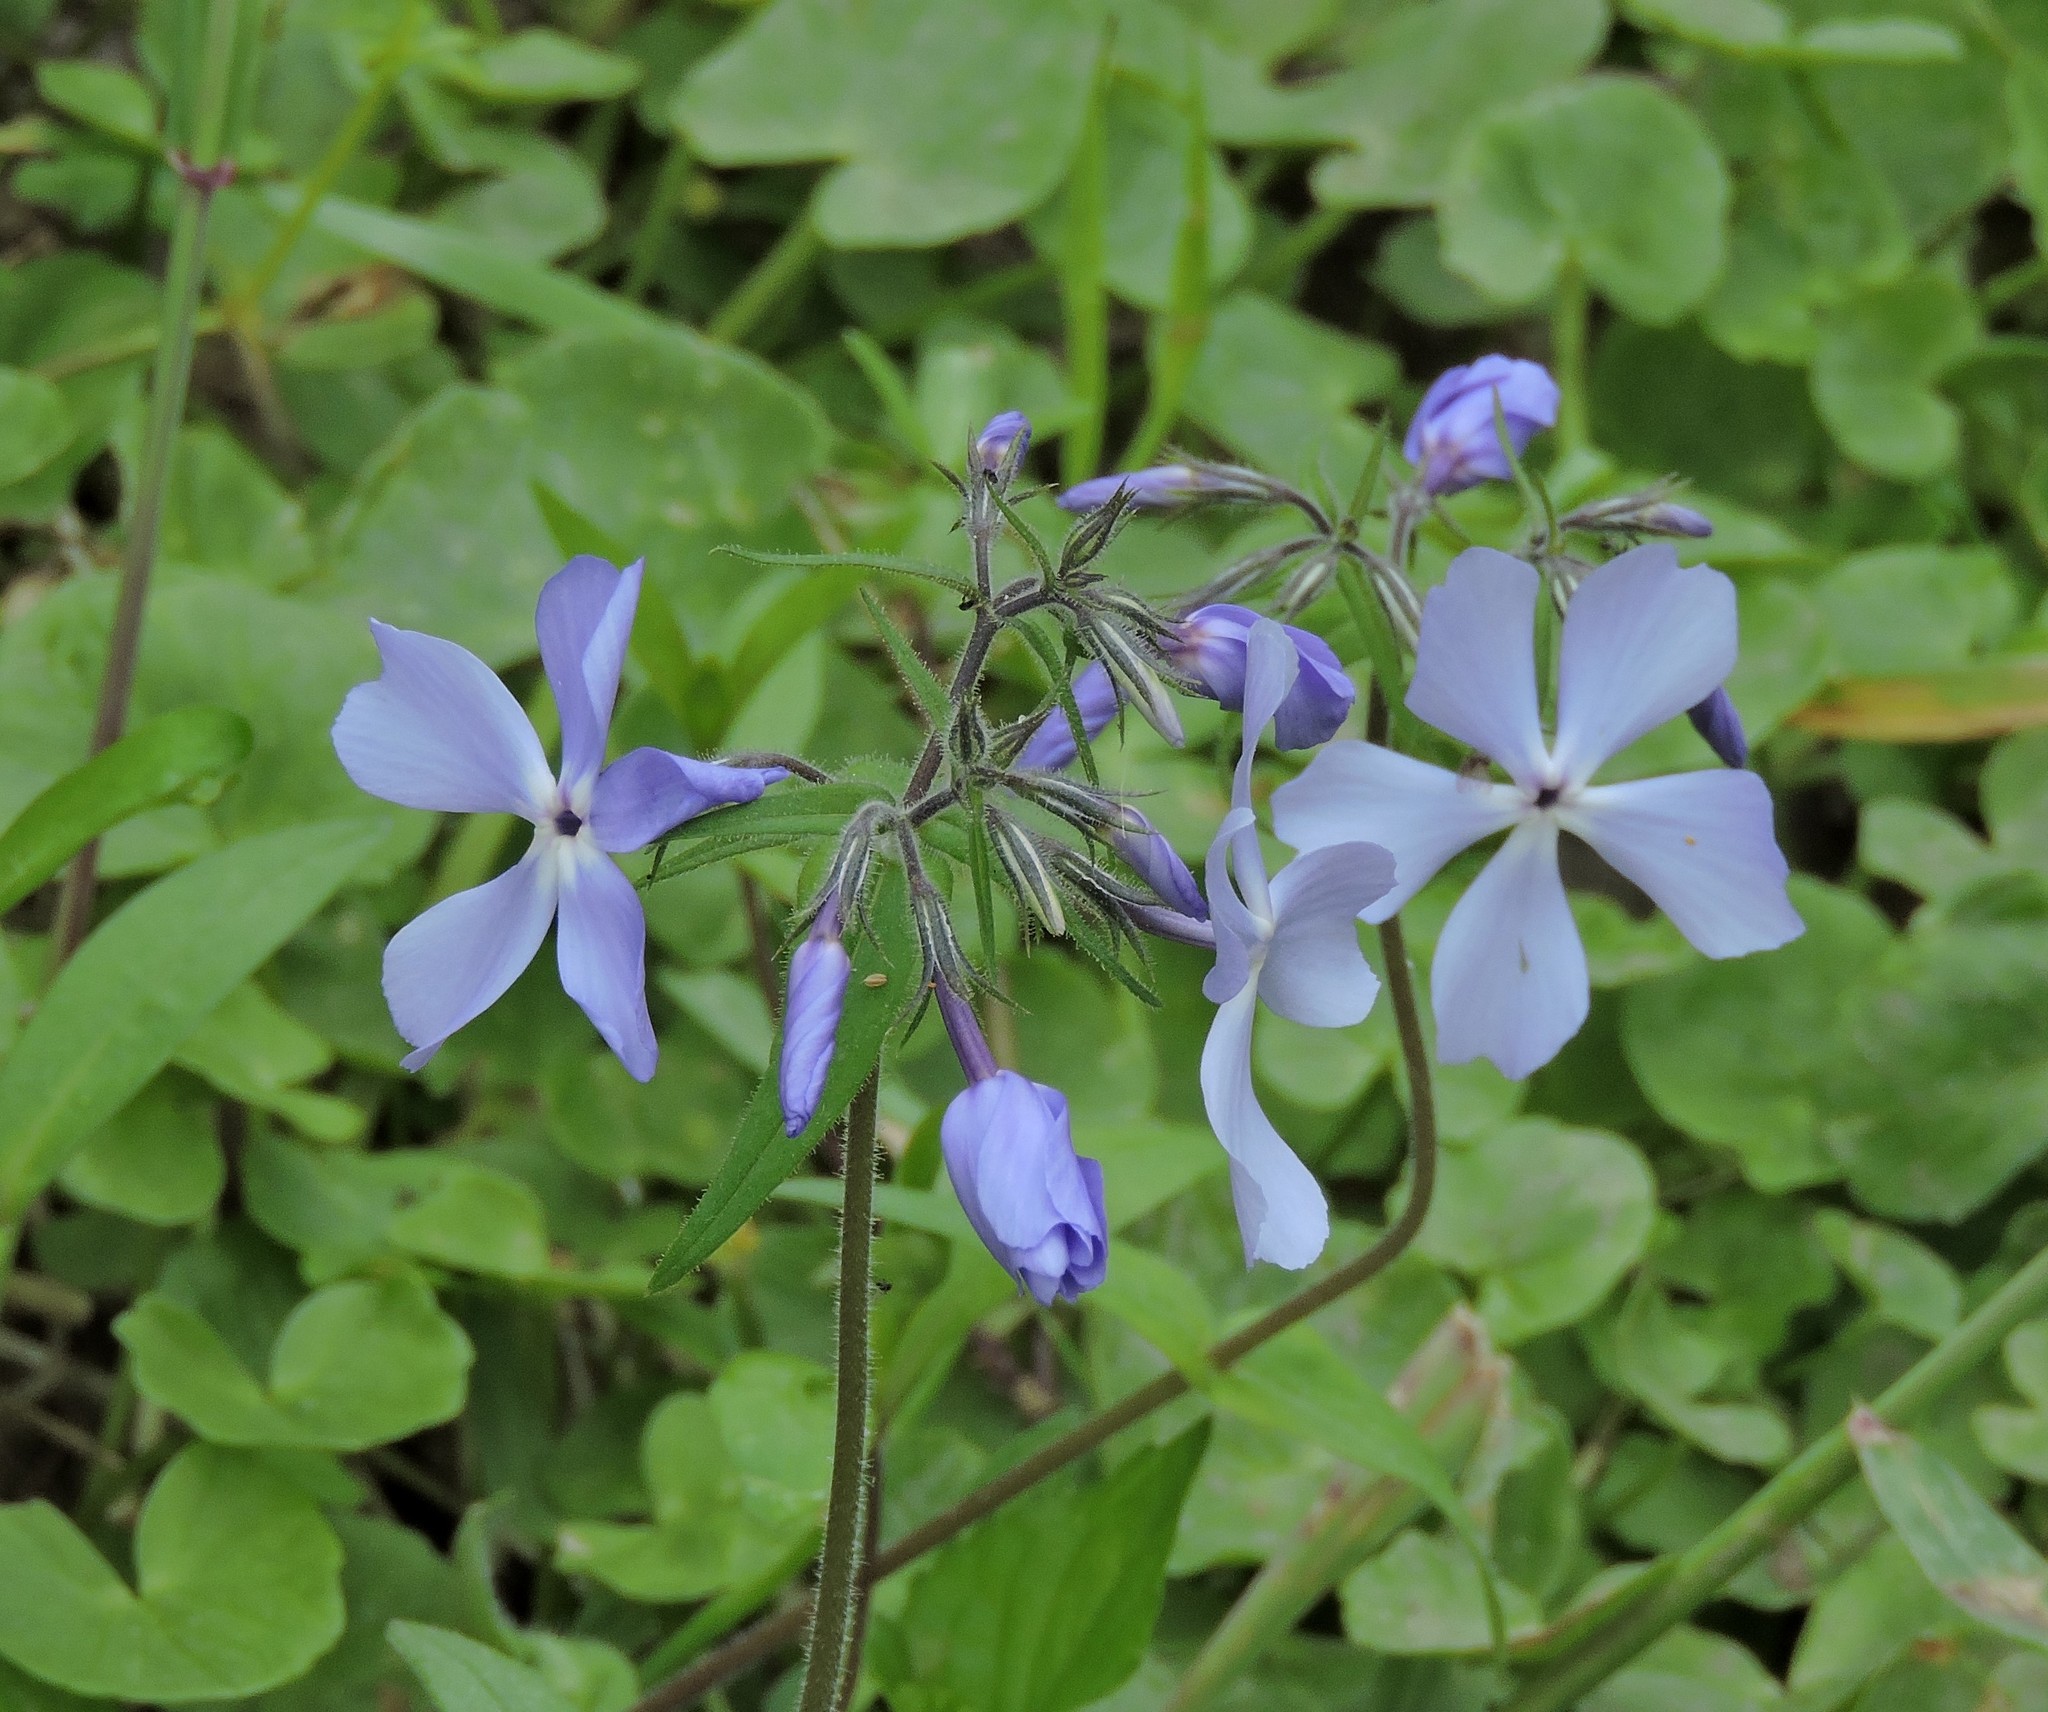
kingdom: Plantae
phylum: Tracheophyta
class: Magnoliopsida
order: Ericales
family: Polemoniaceae
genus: Phlox
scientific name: Phlox divaricata
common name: Blue phlox
